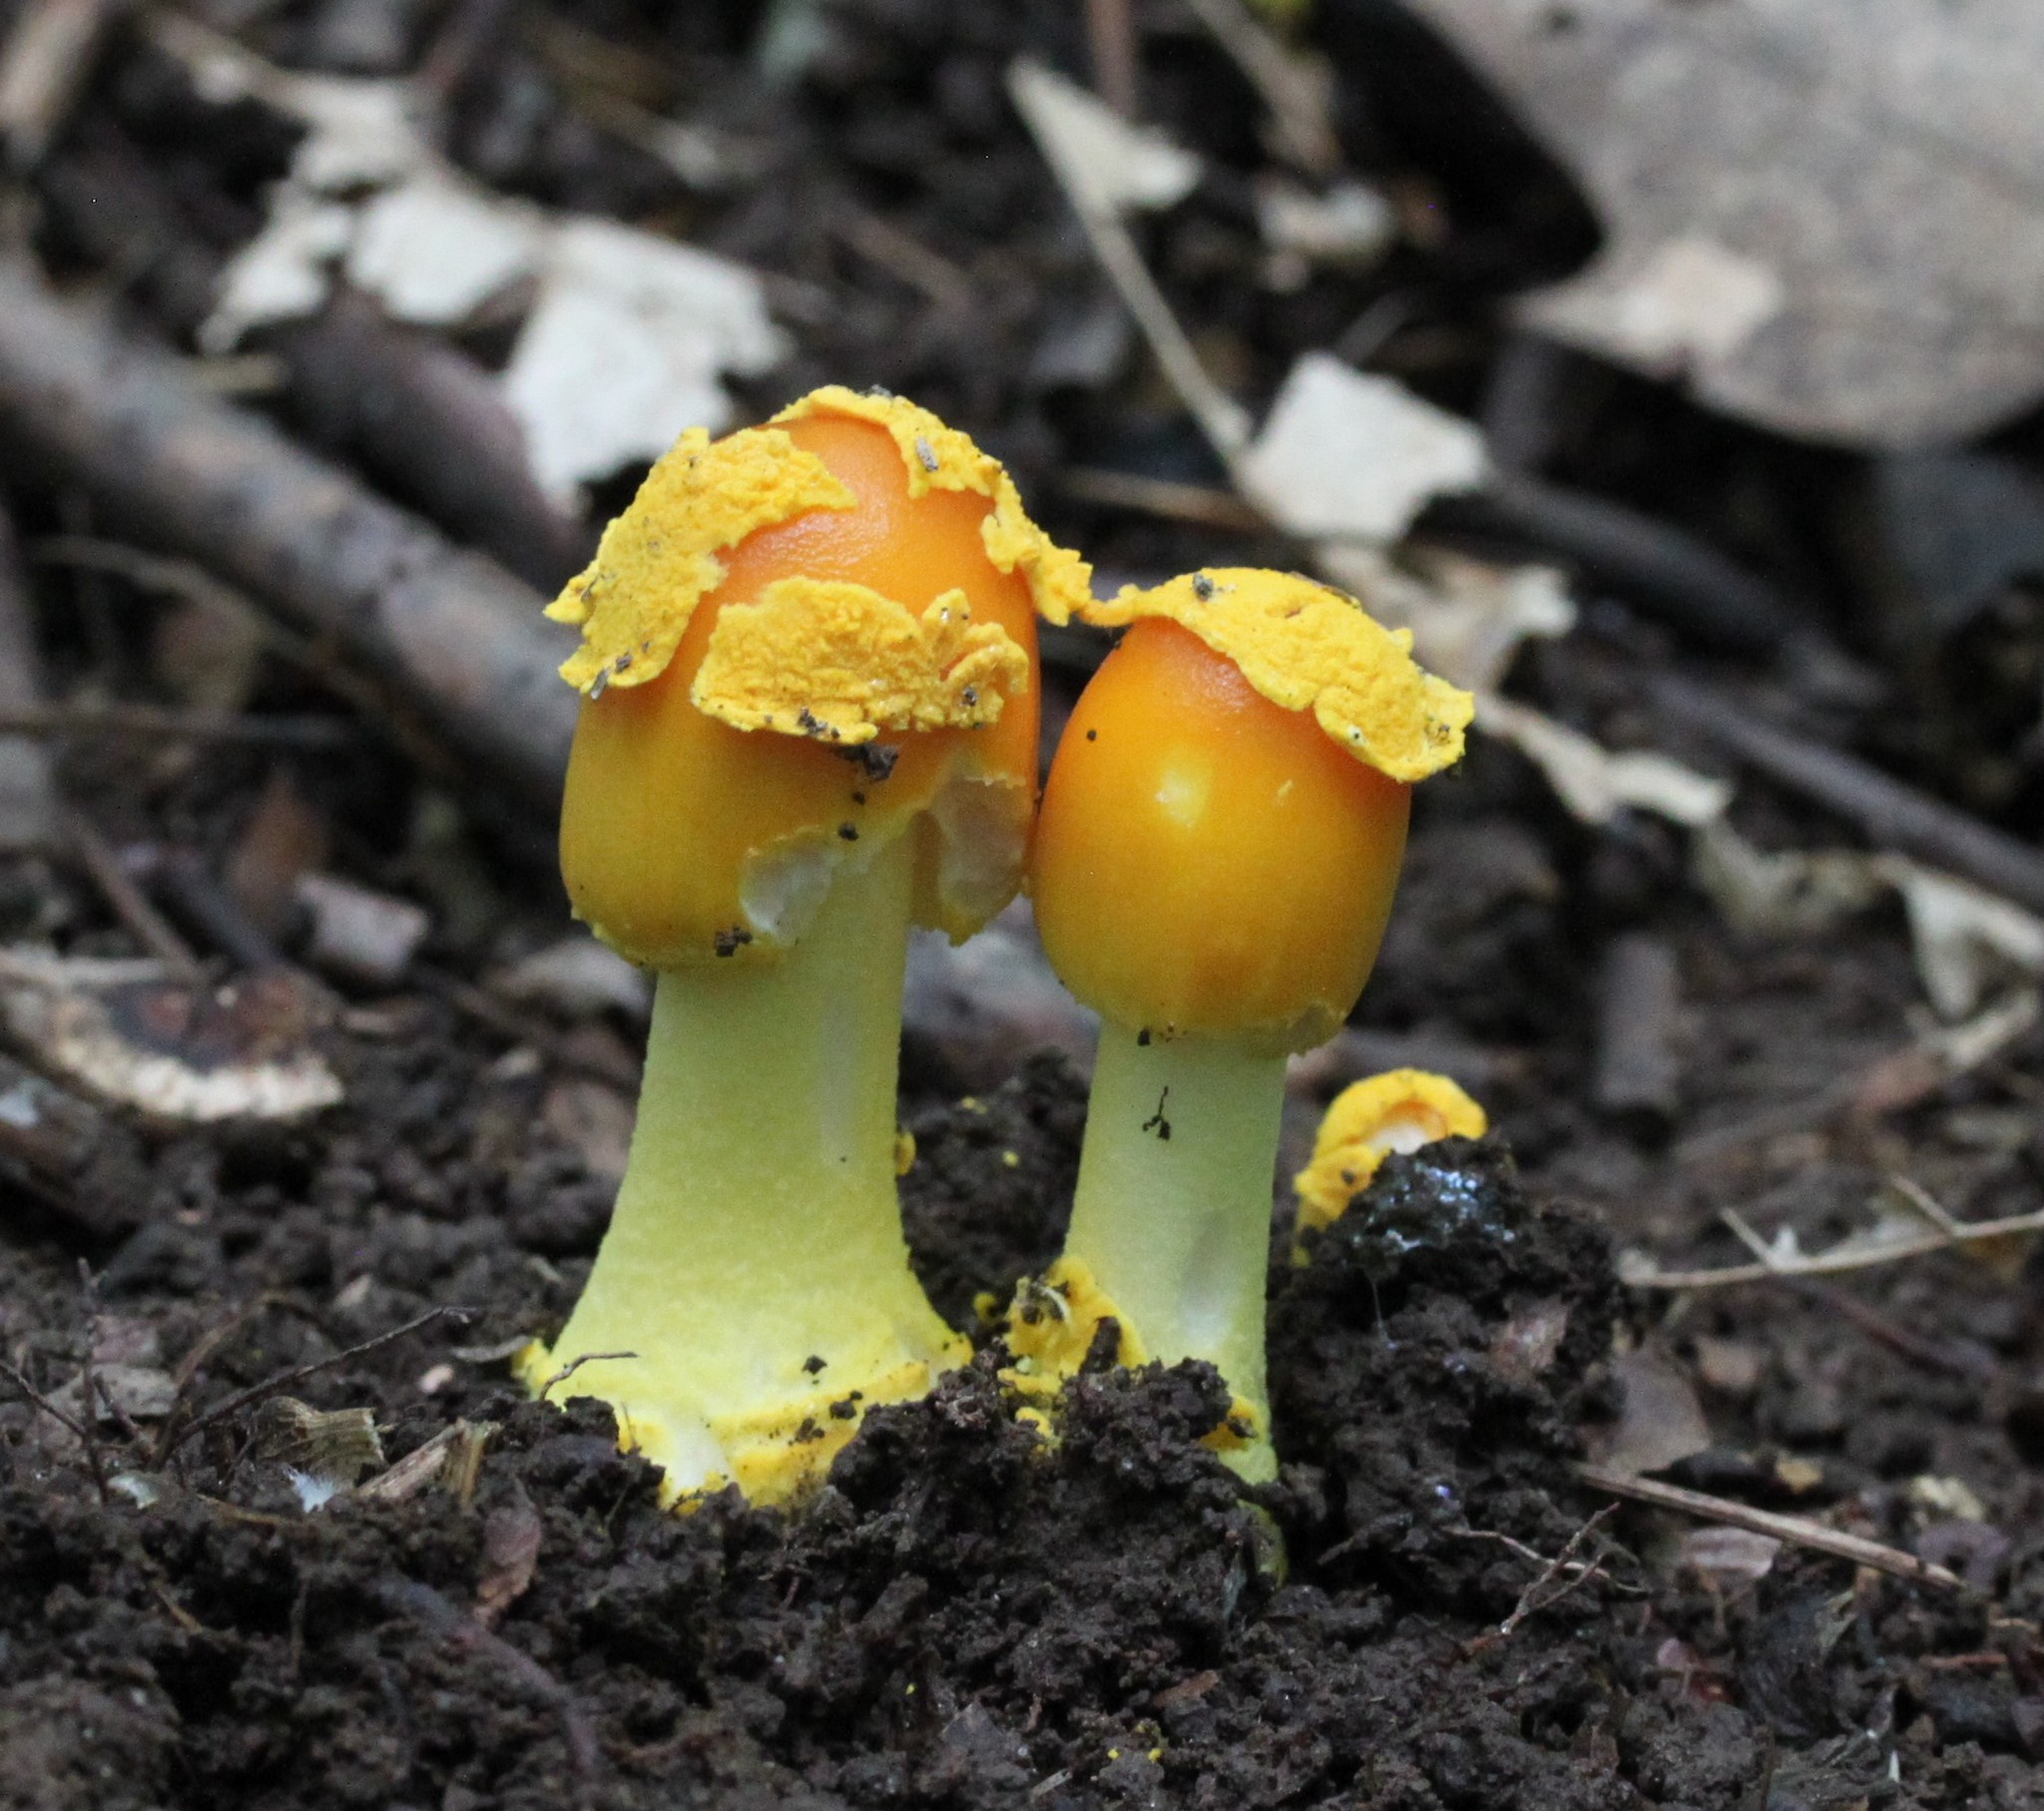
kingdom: Fungi
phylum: Basidiomycota
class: Agaricomycetes
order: Agaricales
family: Amanitaceae
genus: Amanita
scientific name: Amanita flavoconia
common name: Yellow patches
